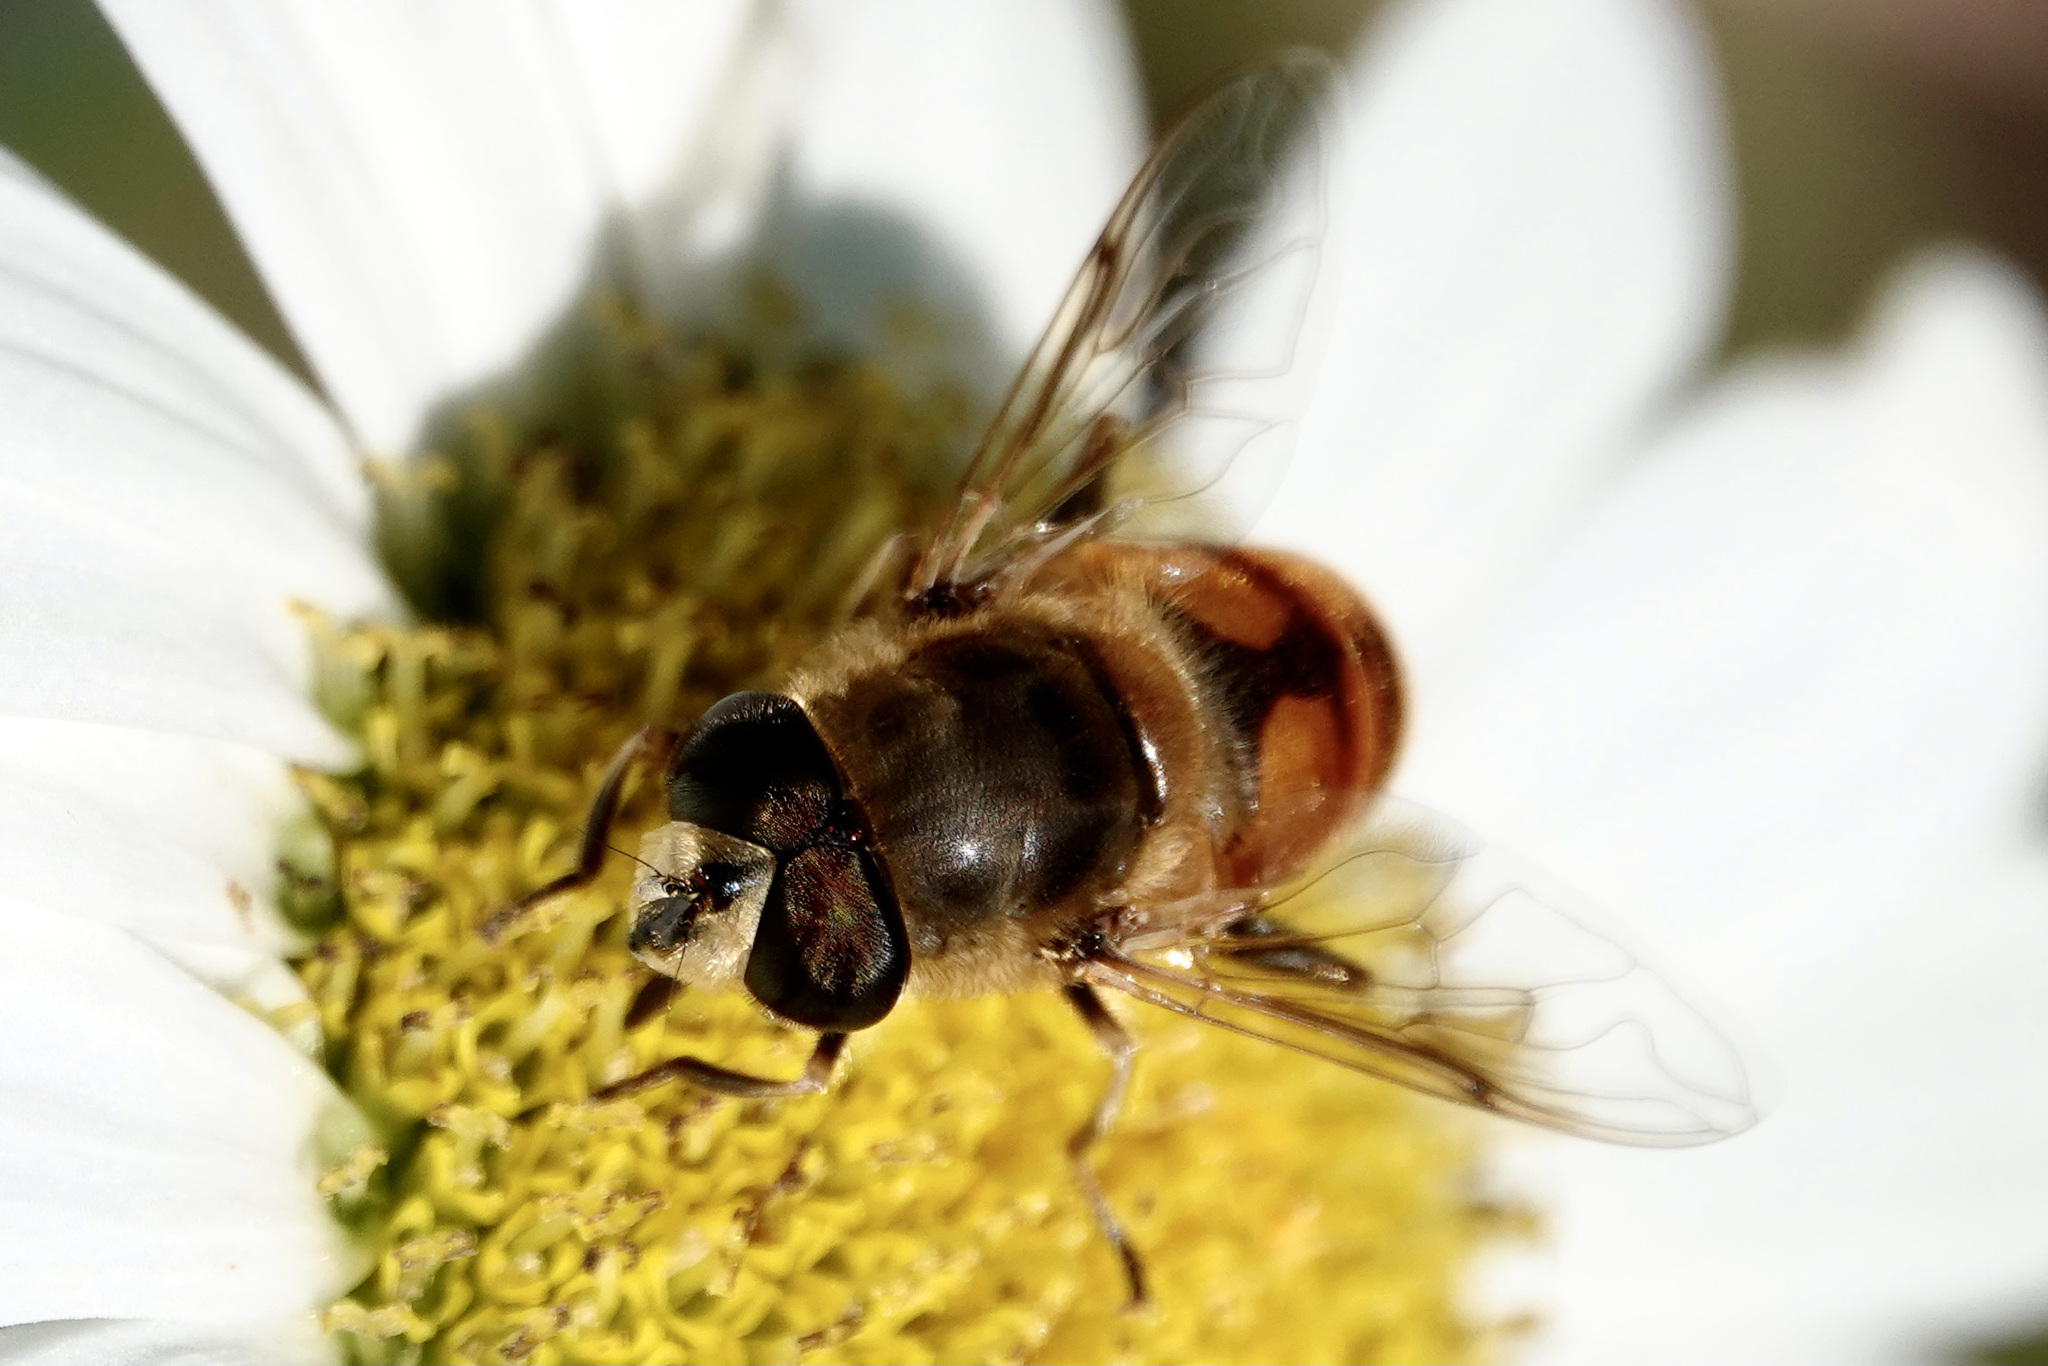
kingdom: Animalia
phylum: Arthropoda
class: Insecta
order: Diptera
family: Syrphidae
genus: Eristalis
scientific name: Eristalis tenax
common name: Drone fly
